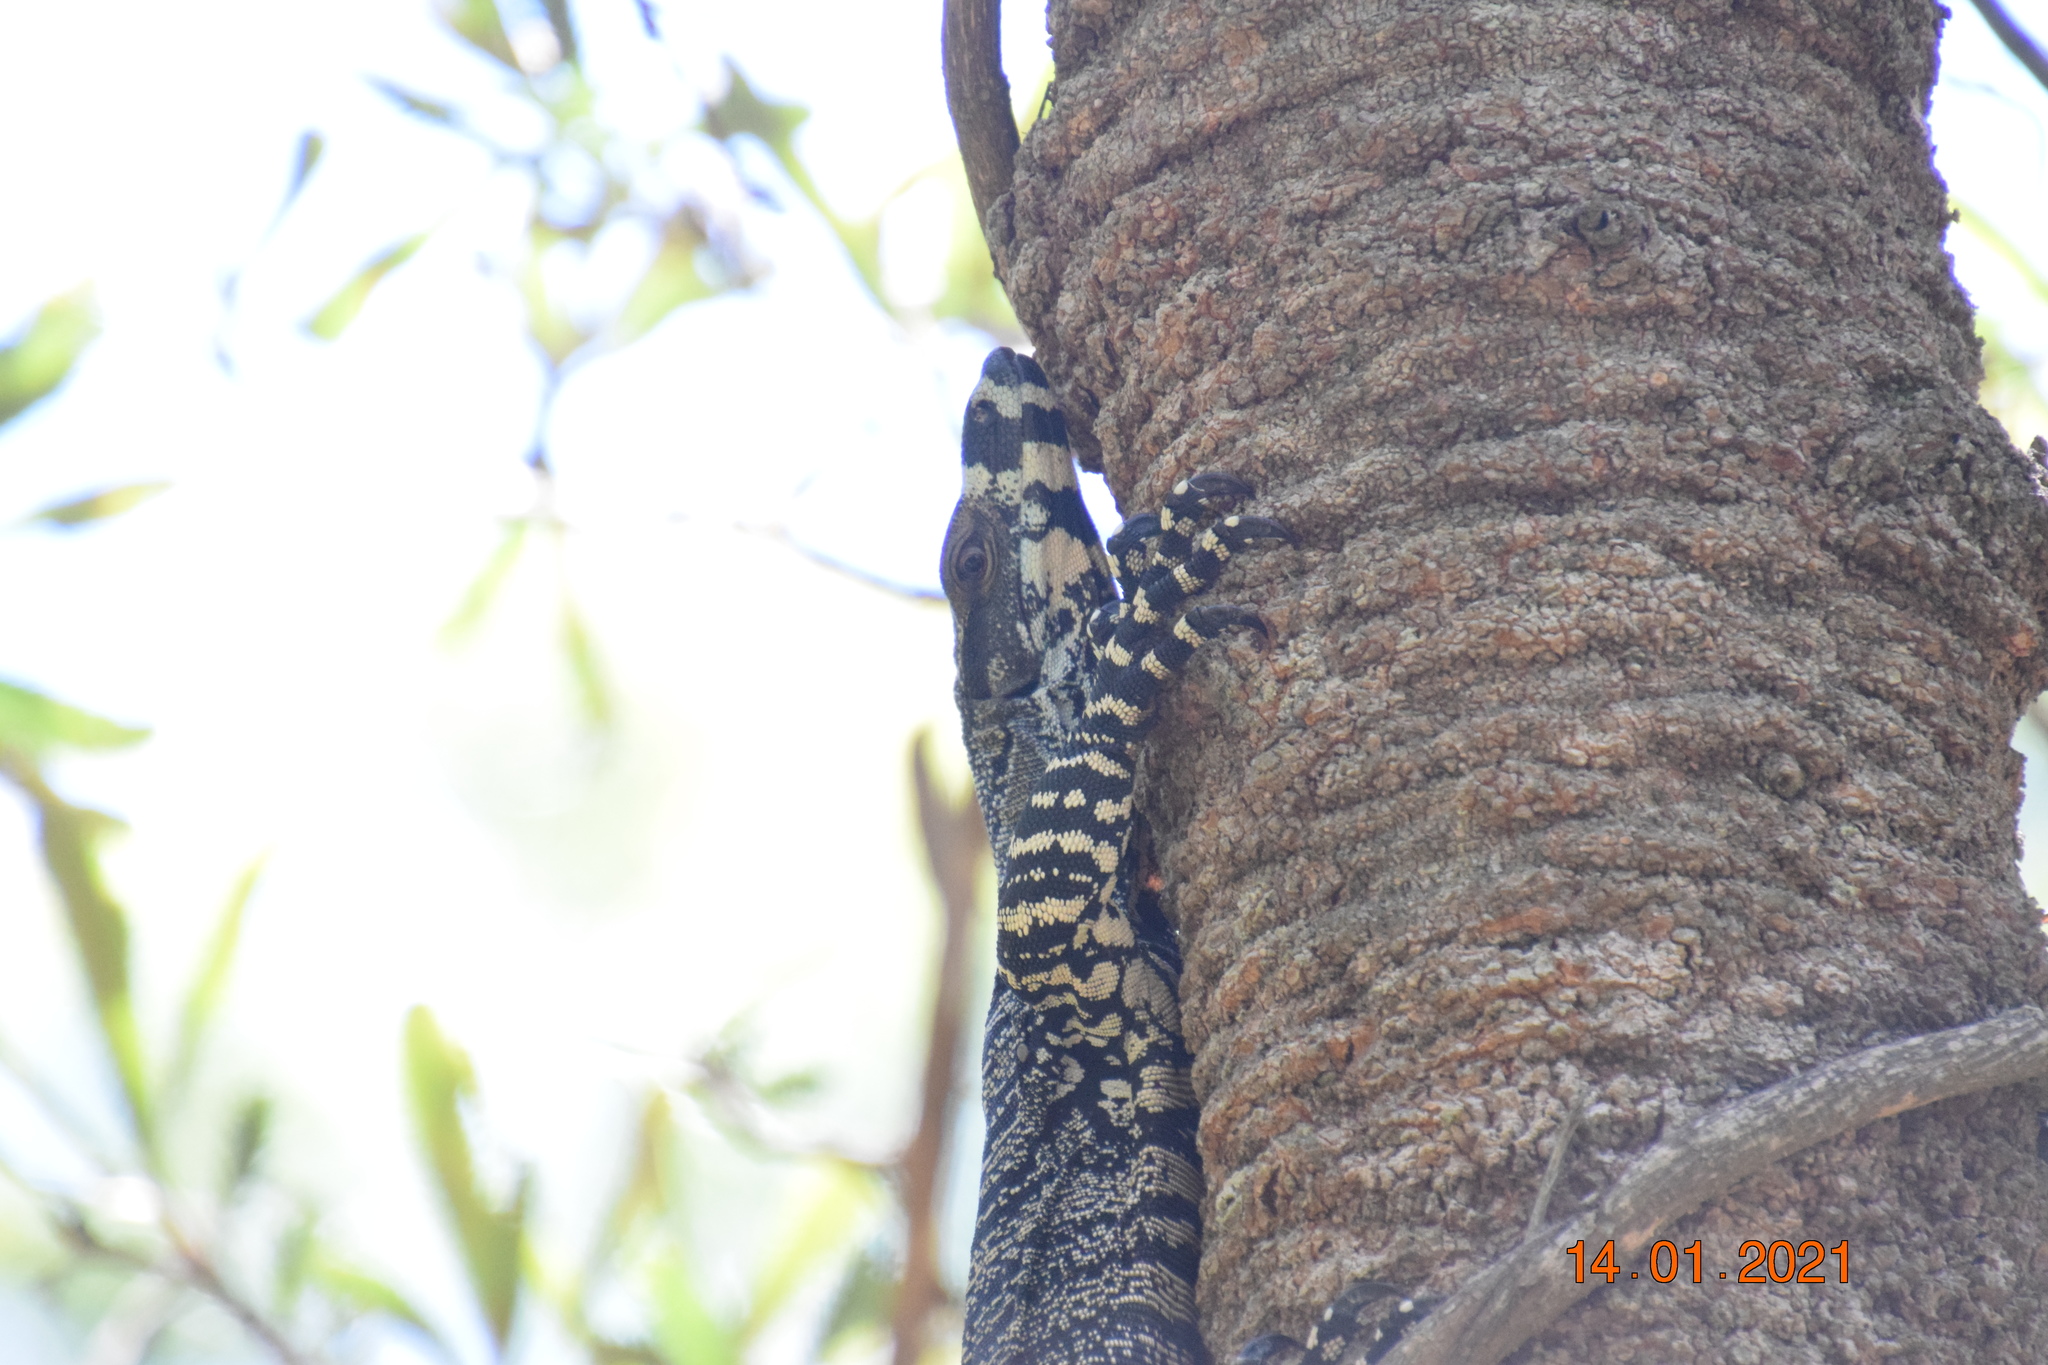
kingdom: Animalia
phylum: Chordata
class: Squamata
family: Varanidae
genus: Varanus
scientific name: Varanus varius
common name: Lace monitor
